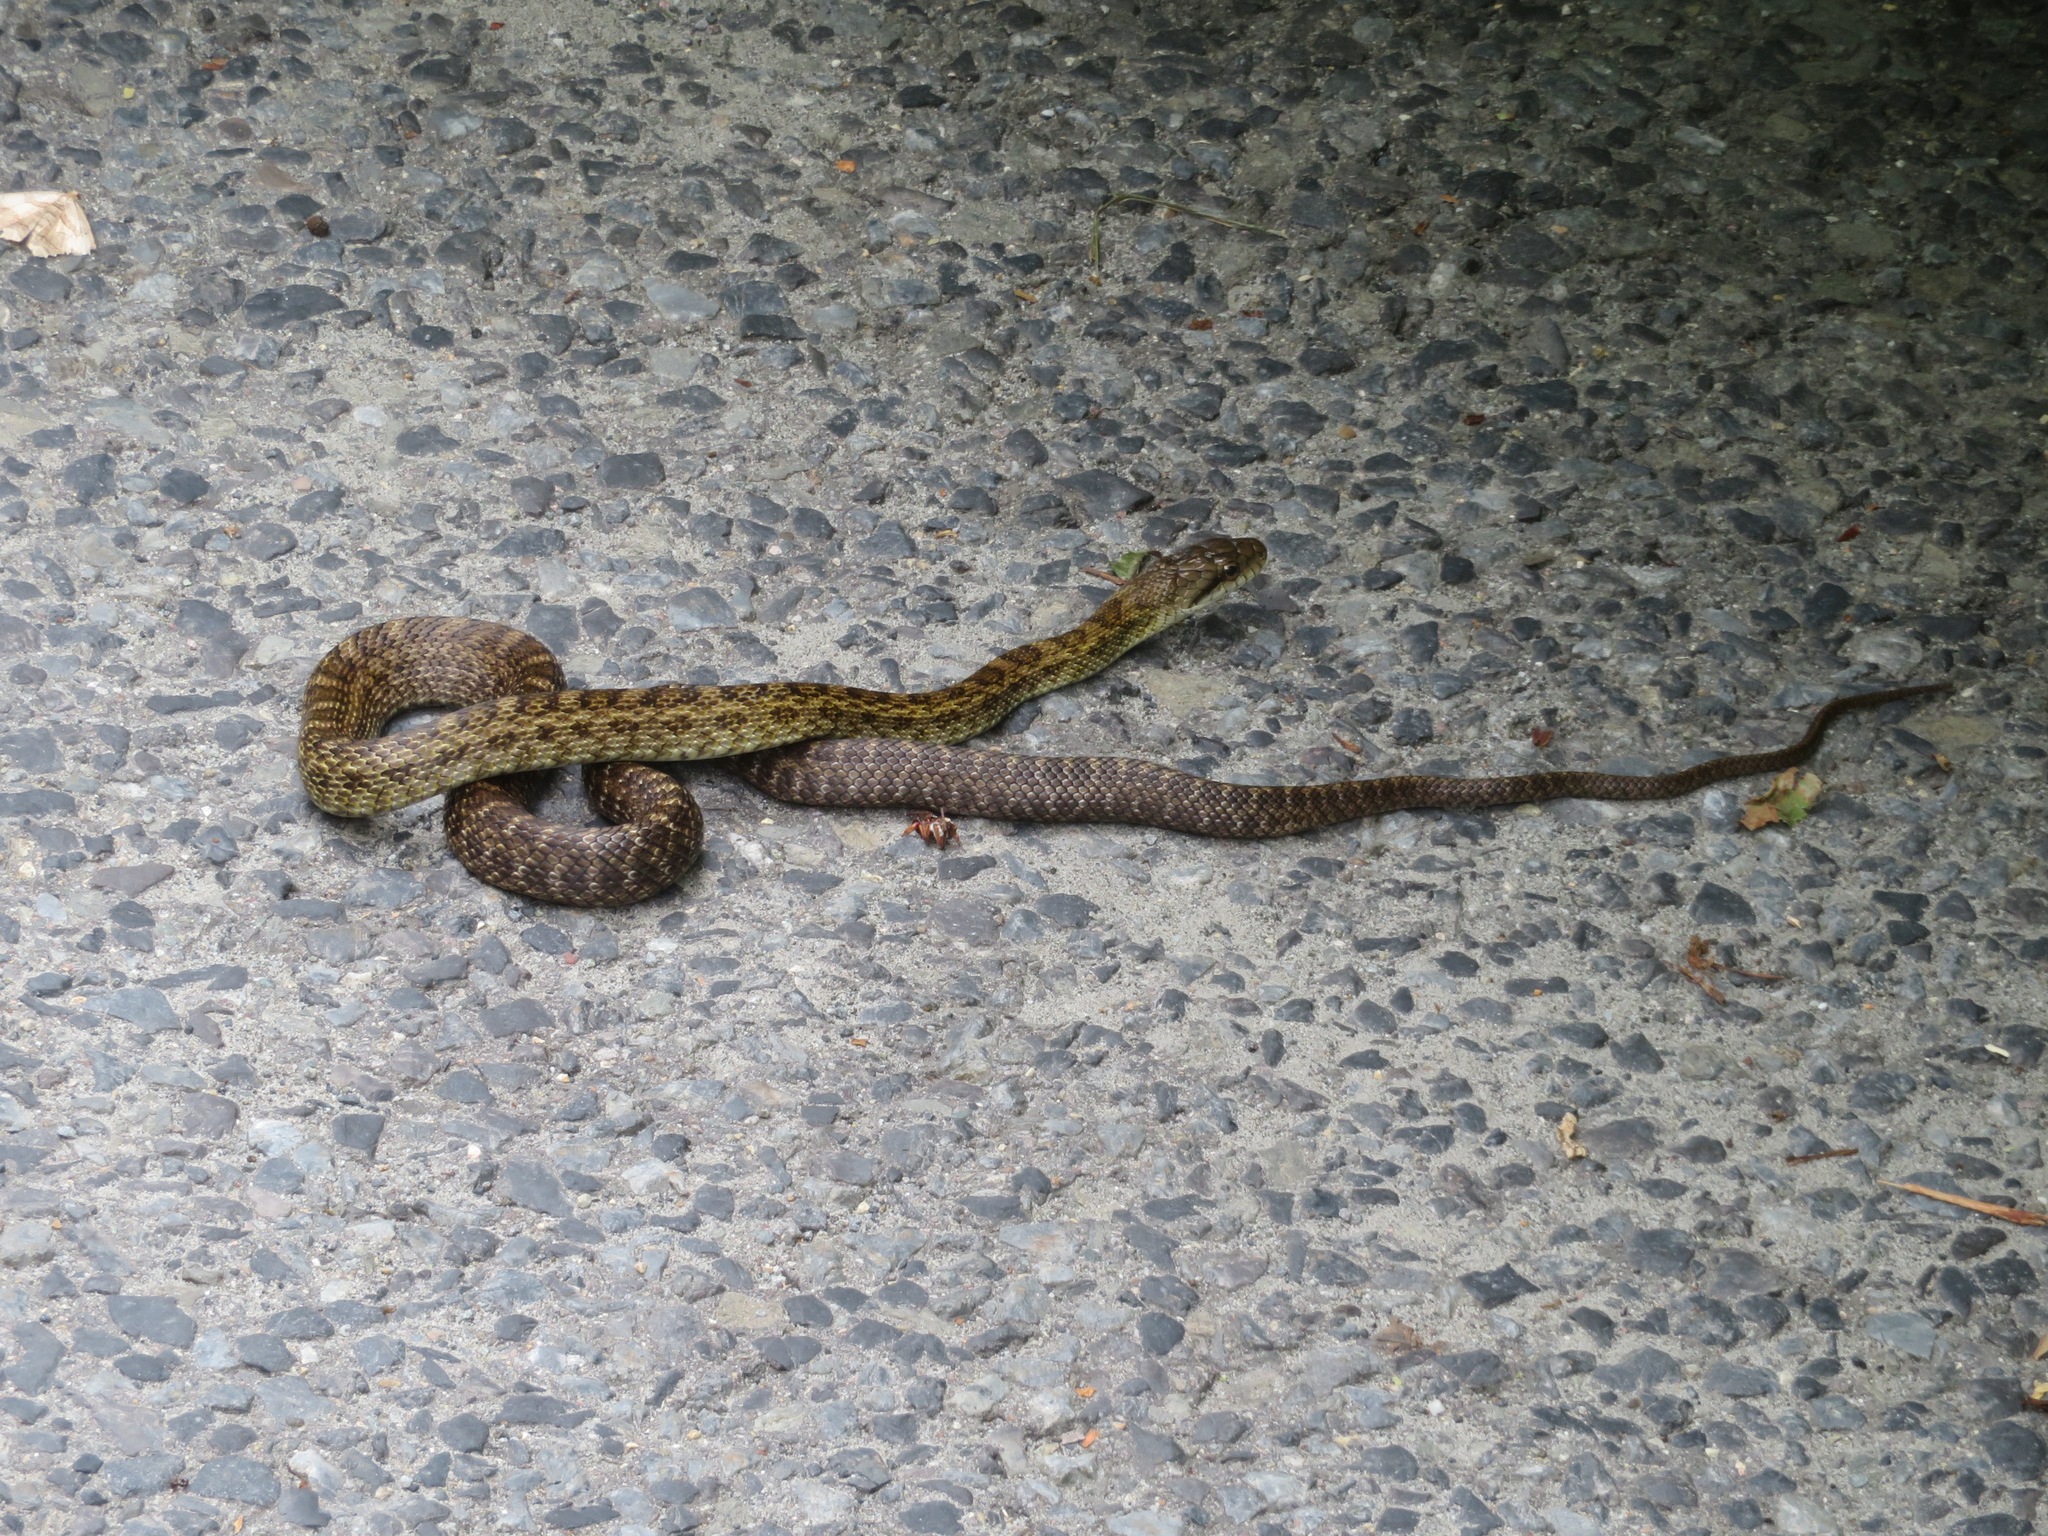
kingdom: Animalia
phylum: Chordata
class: Squamata
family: Colubridae
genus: Elaphe
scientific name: Elaphe climacophora
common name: Japanese ratsnake
